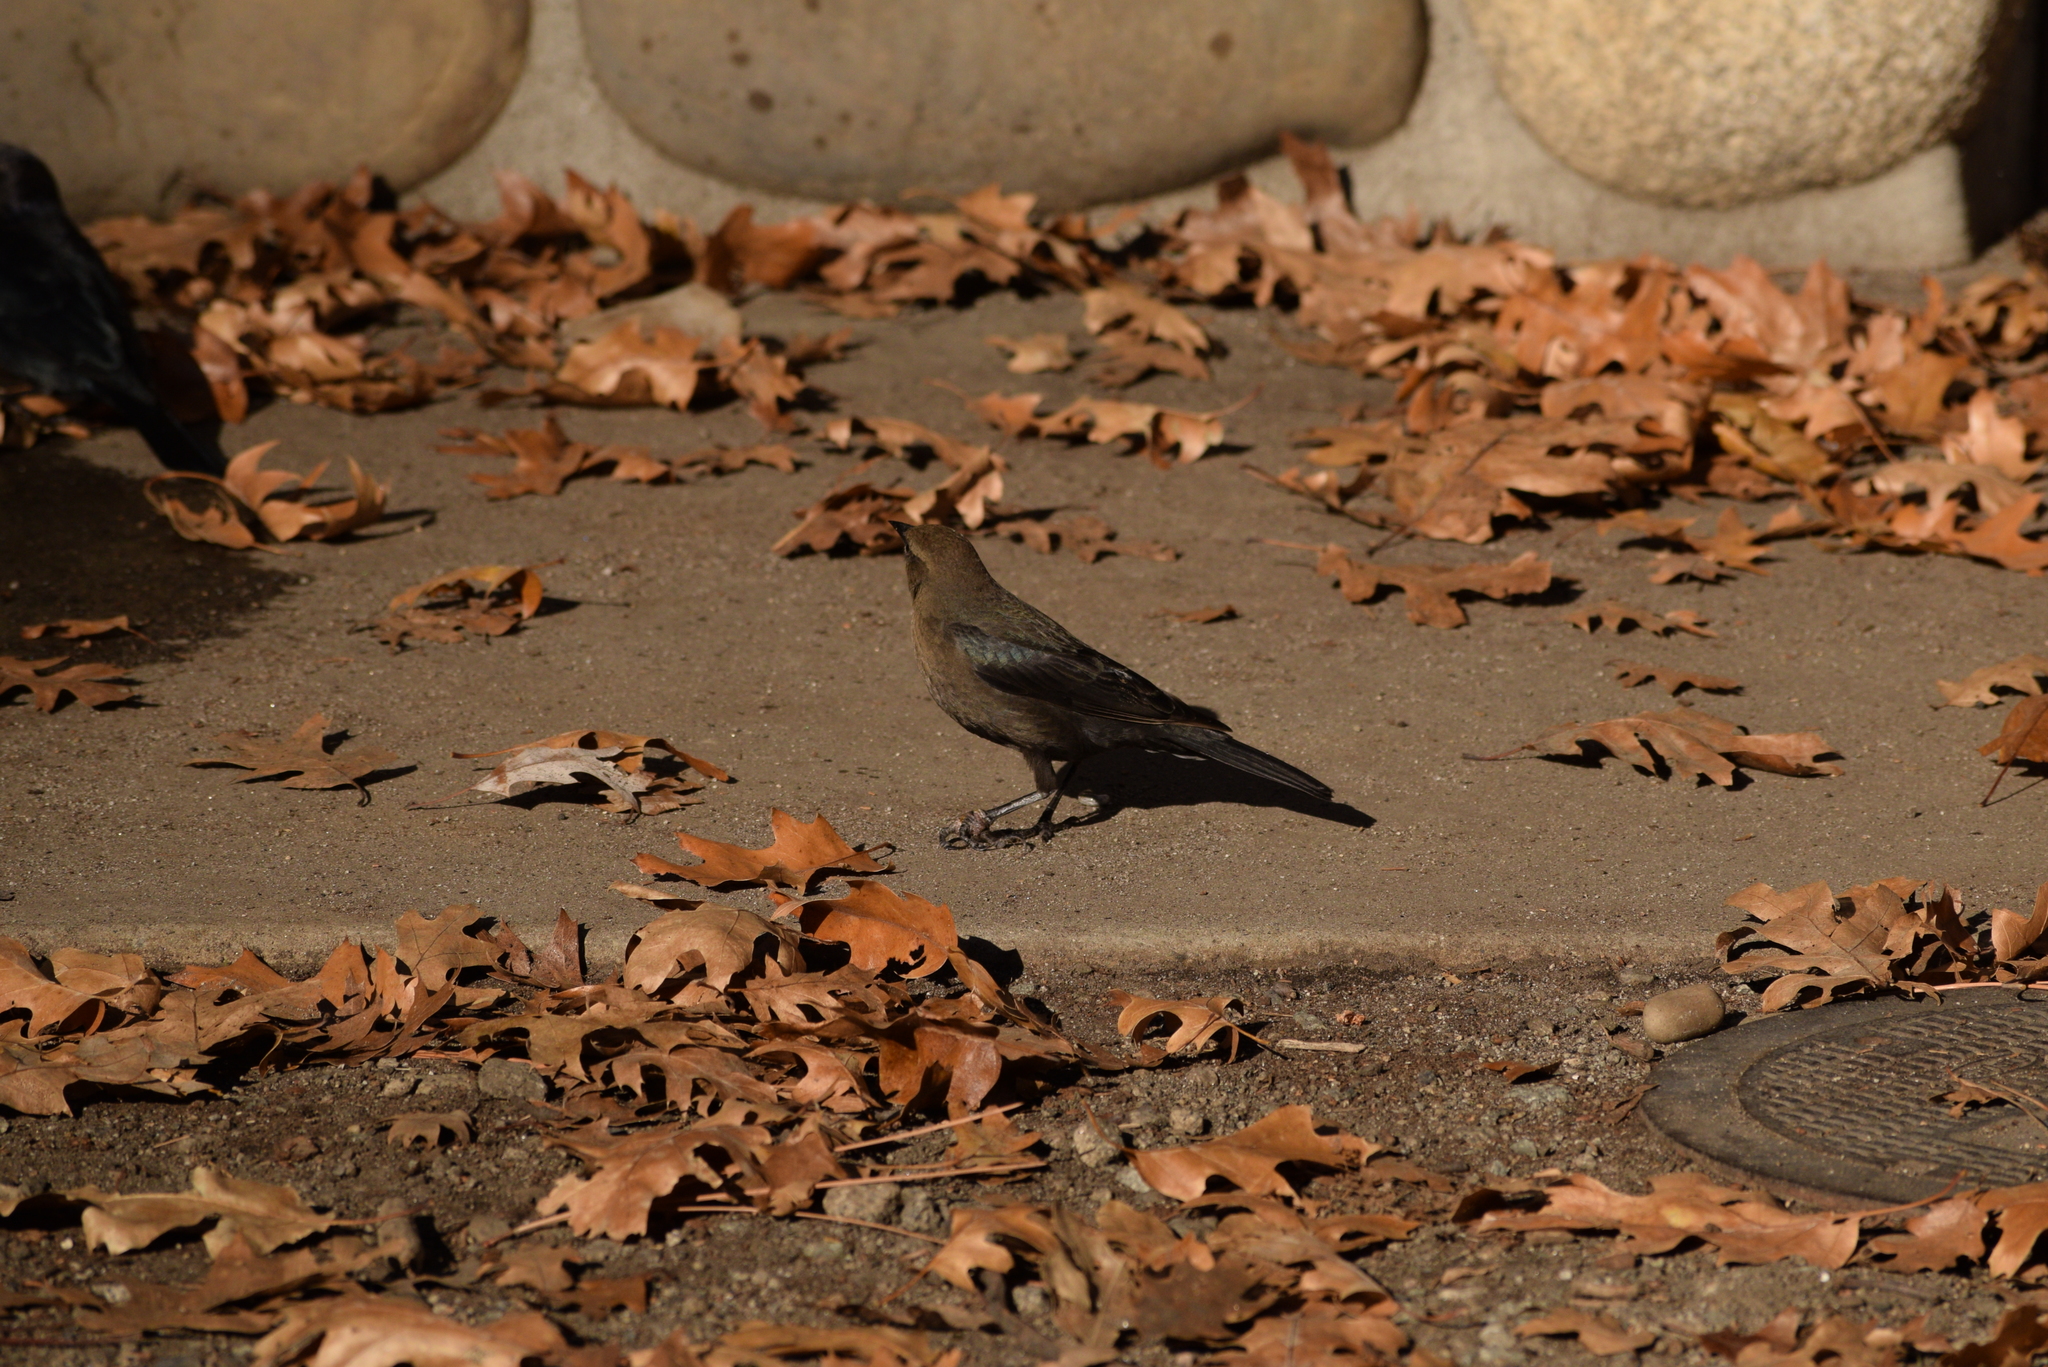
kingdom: Animalia
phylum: Chordata
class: Aves
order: Passeriformes
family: Icteridae
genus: Euphagus
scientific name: Euphagus cyanocephalus
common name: Brewer's blackbird
